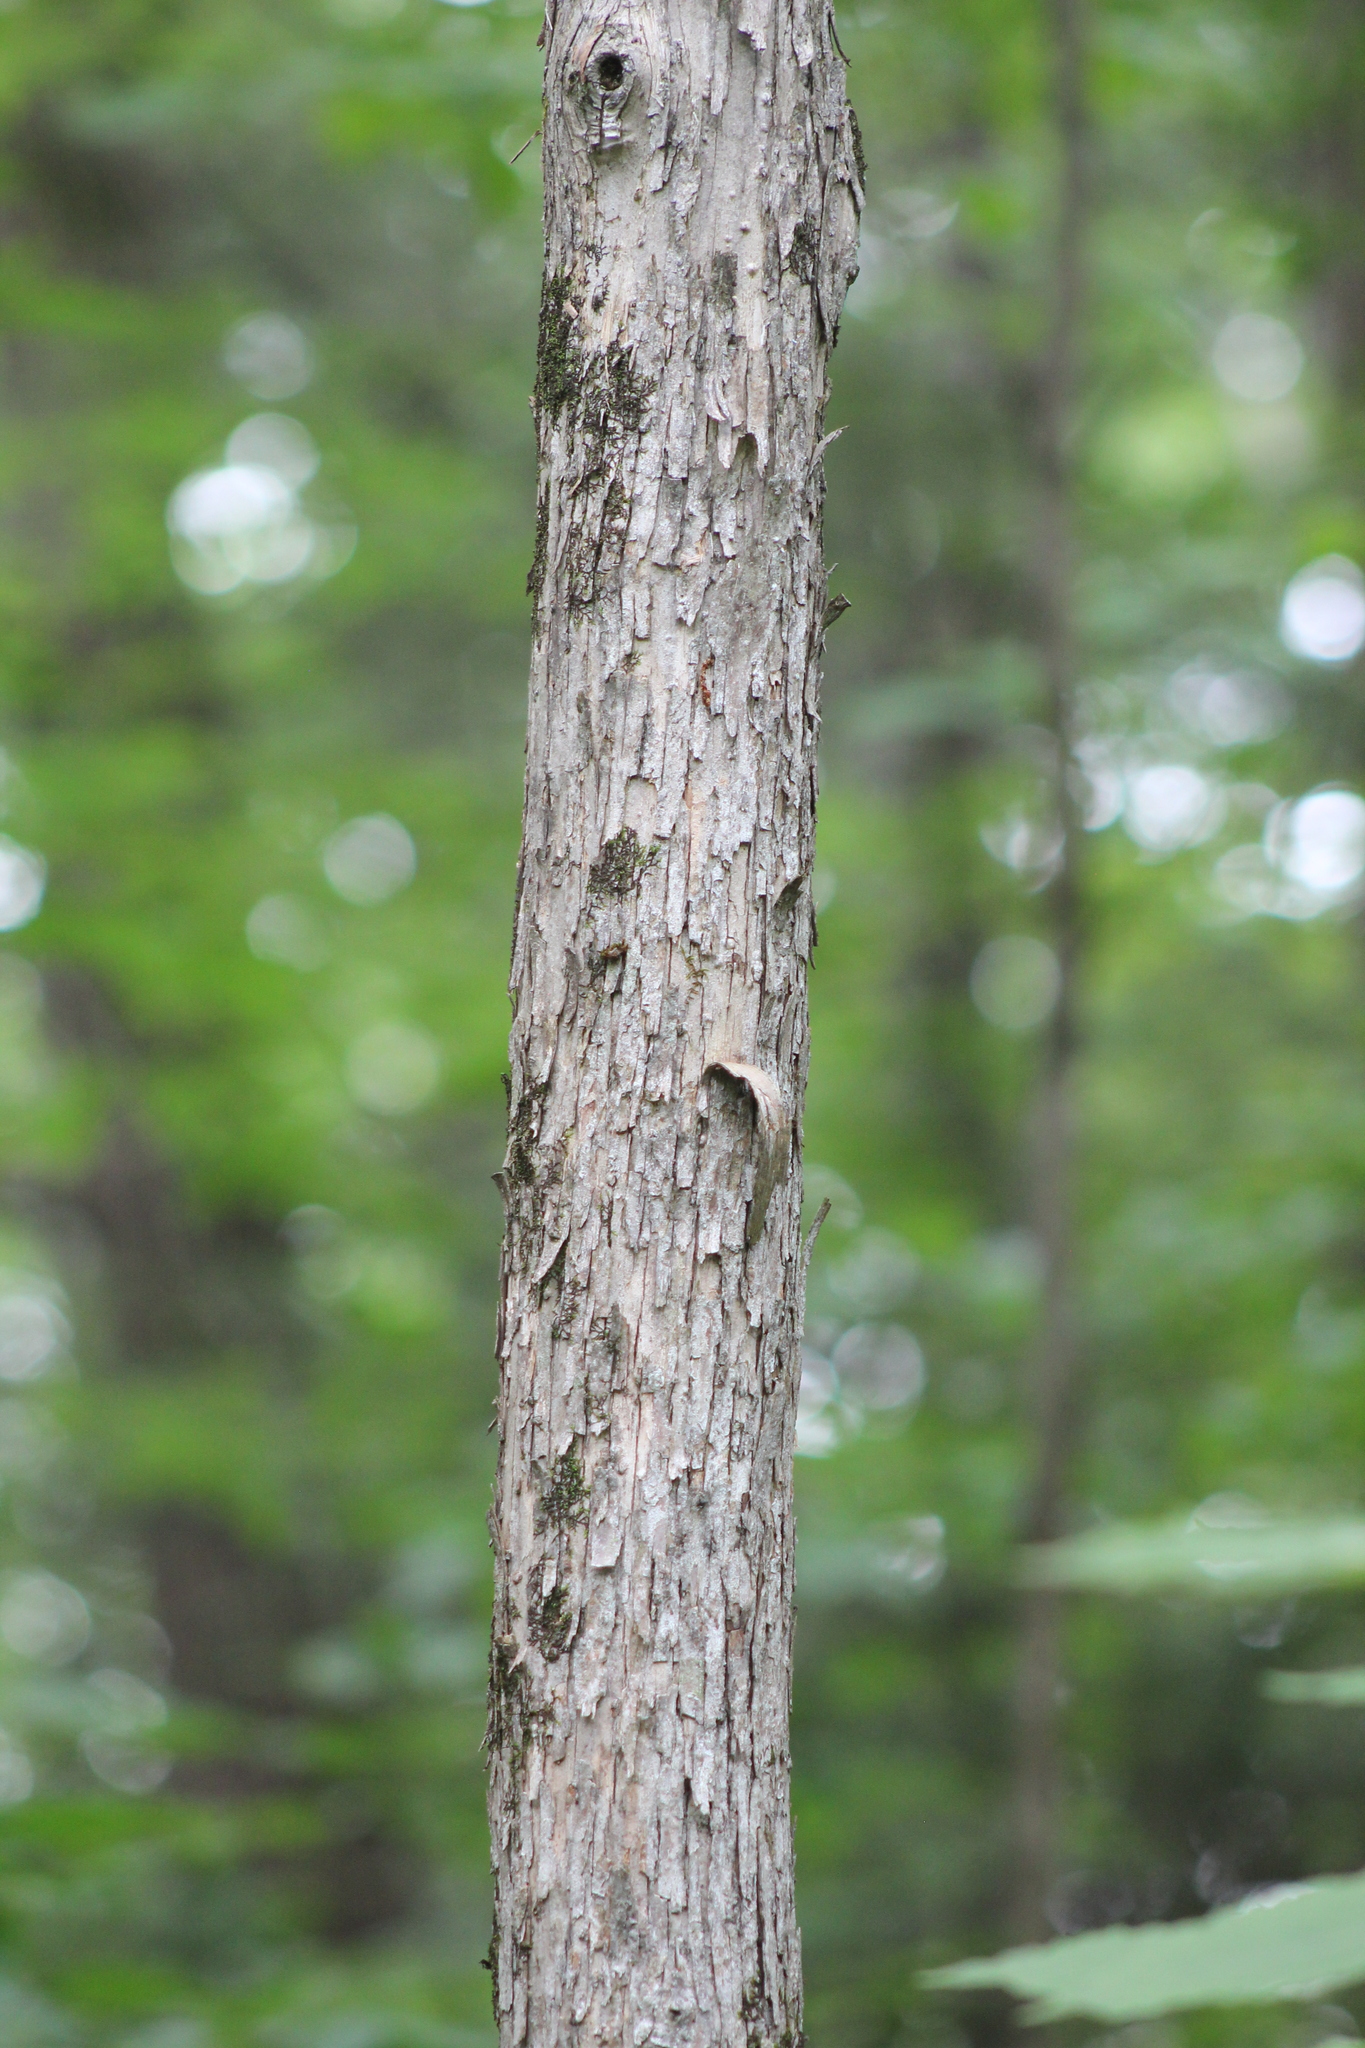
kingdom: Plantae
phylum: Tracheophyta
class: Magnoliopsida
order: Fagales
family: Betulaceae
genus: Ostrya
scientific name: Ostrya virginiana
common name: Ironwood
